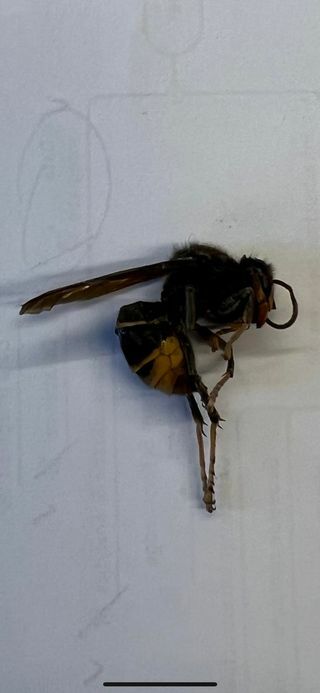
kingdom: Animalia
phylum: Arthropoda
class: Insecta
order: Hymenoptera
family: Vespidae
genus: Vespa
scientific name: Vespa velutina
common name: Asian hornet
